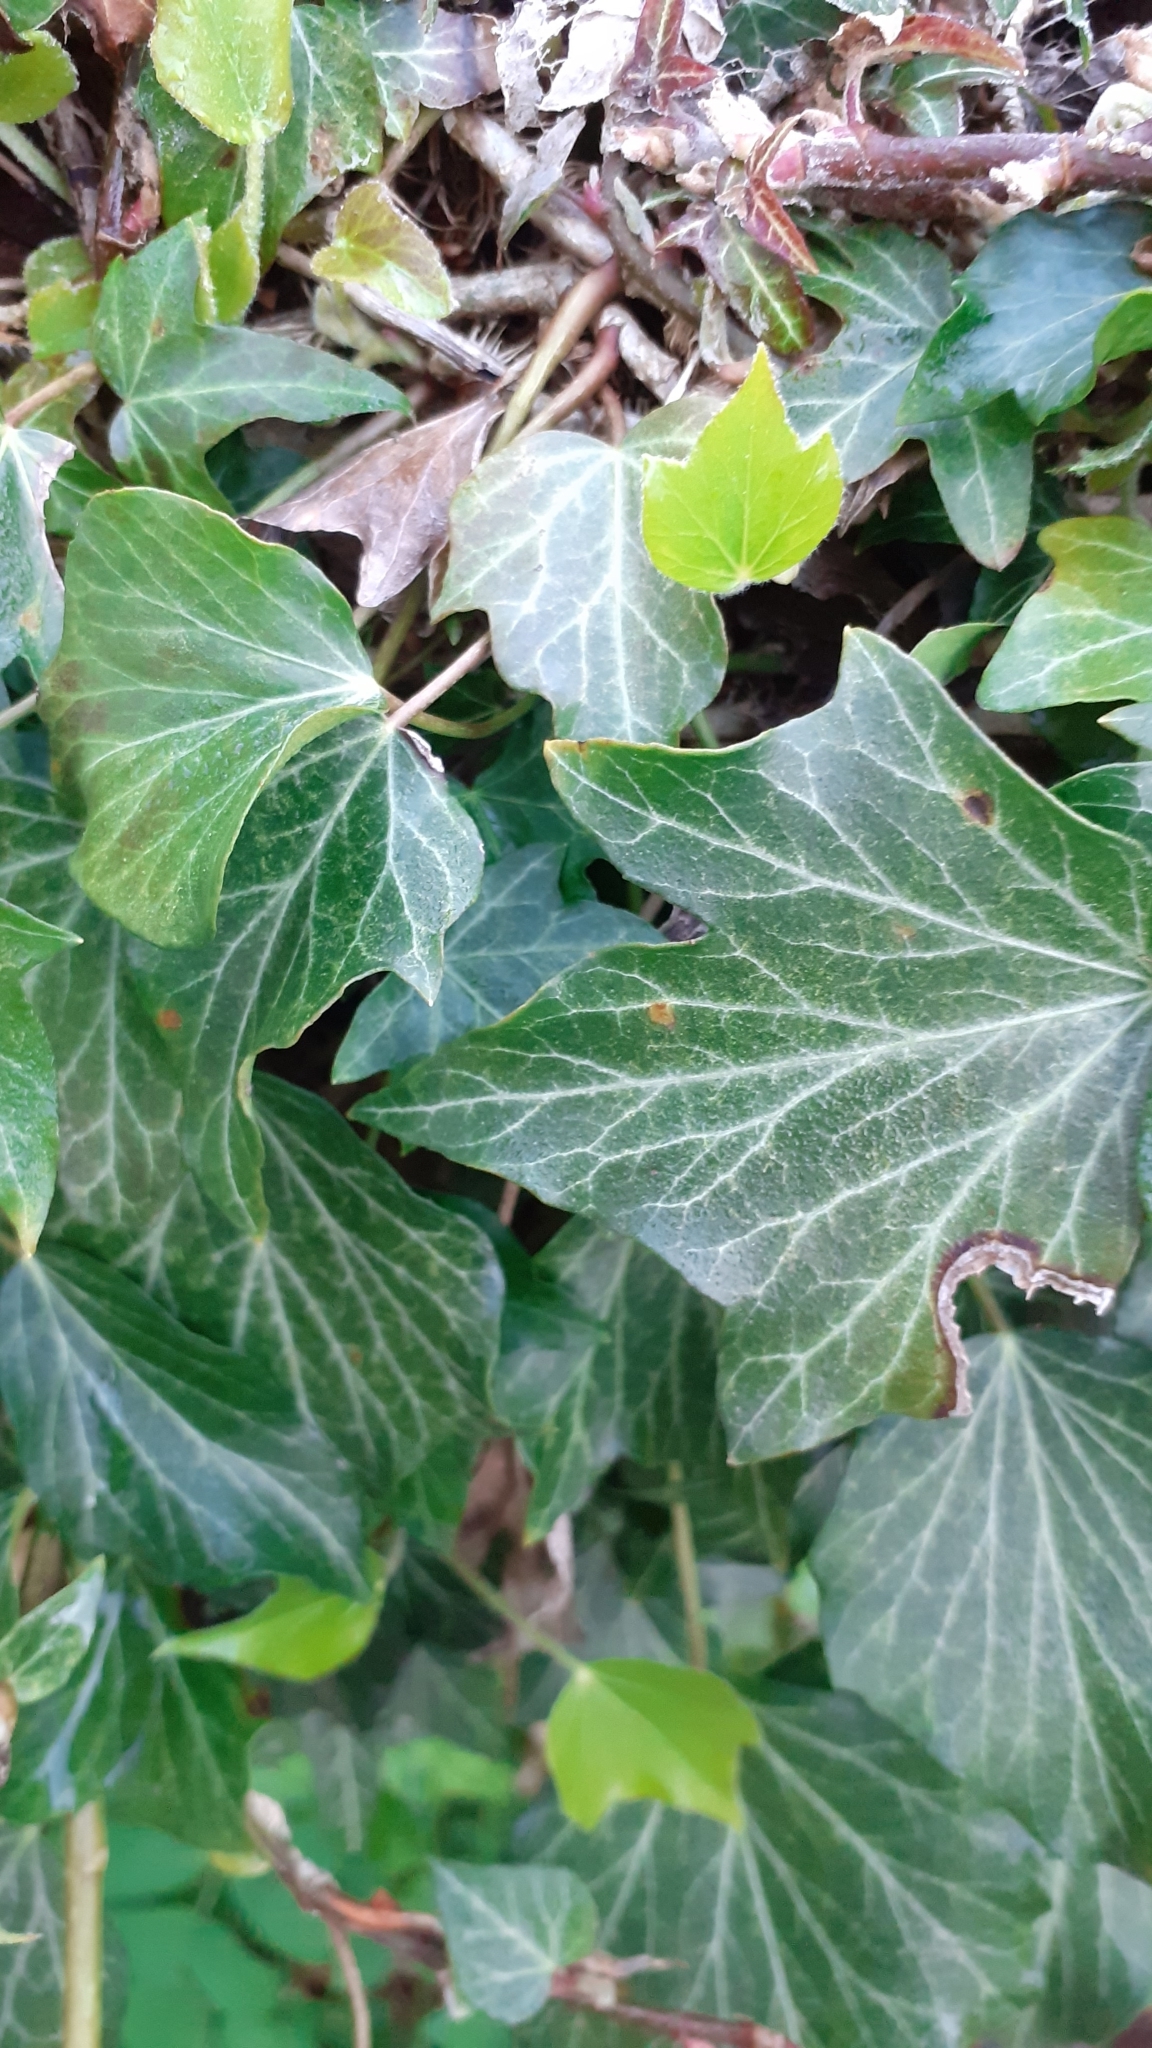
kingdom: Plantae
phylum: Tracheophyta
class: Magnoliopsida
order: Apiales
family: Araliaceae
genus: Hedera
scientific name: Hedera helix
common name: Ivy
